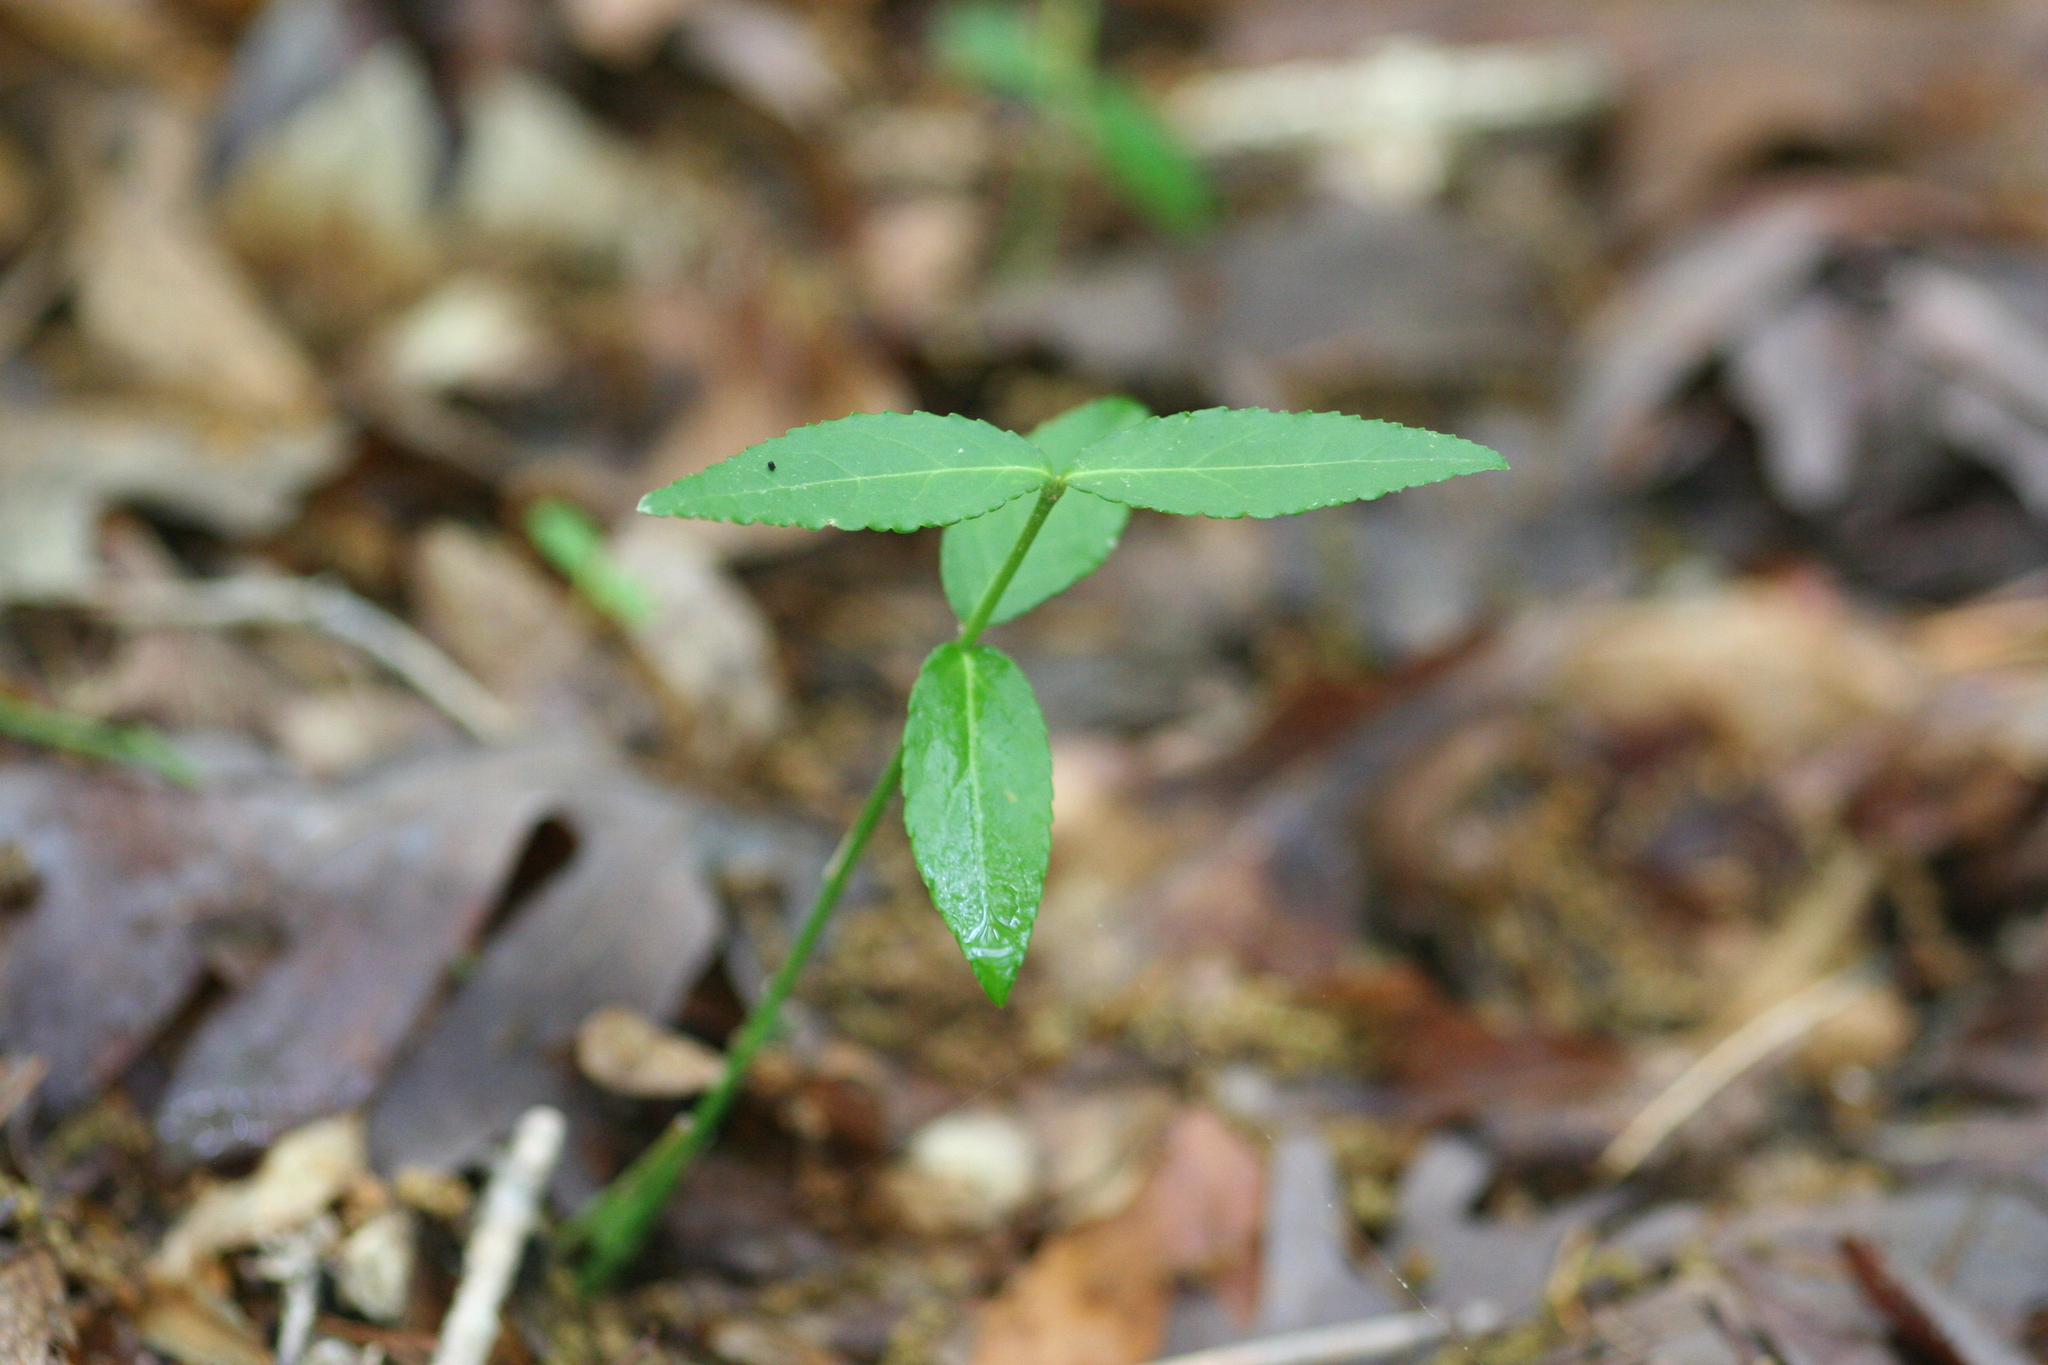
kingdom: Plantae
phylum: Tracheophyta
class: Magnoliopsida
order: Celastrales
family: Celastraceae
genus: Euonymus
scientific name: Euonymus americanus
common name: Bursting-heart
